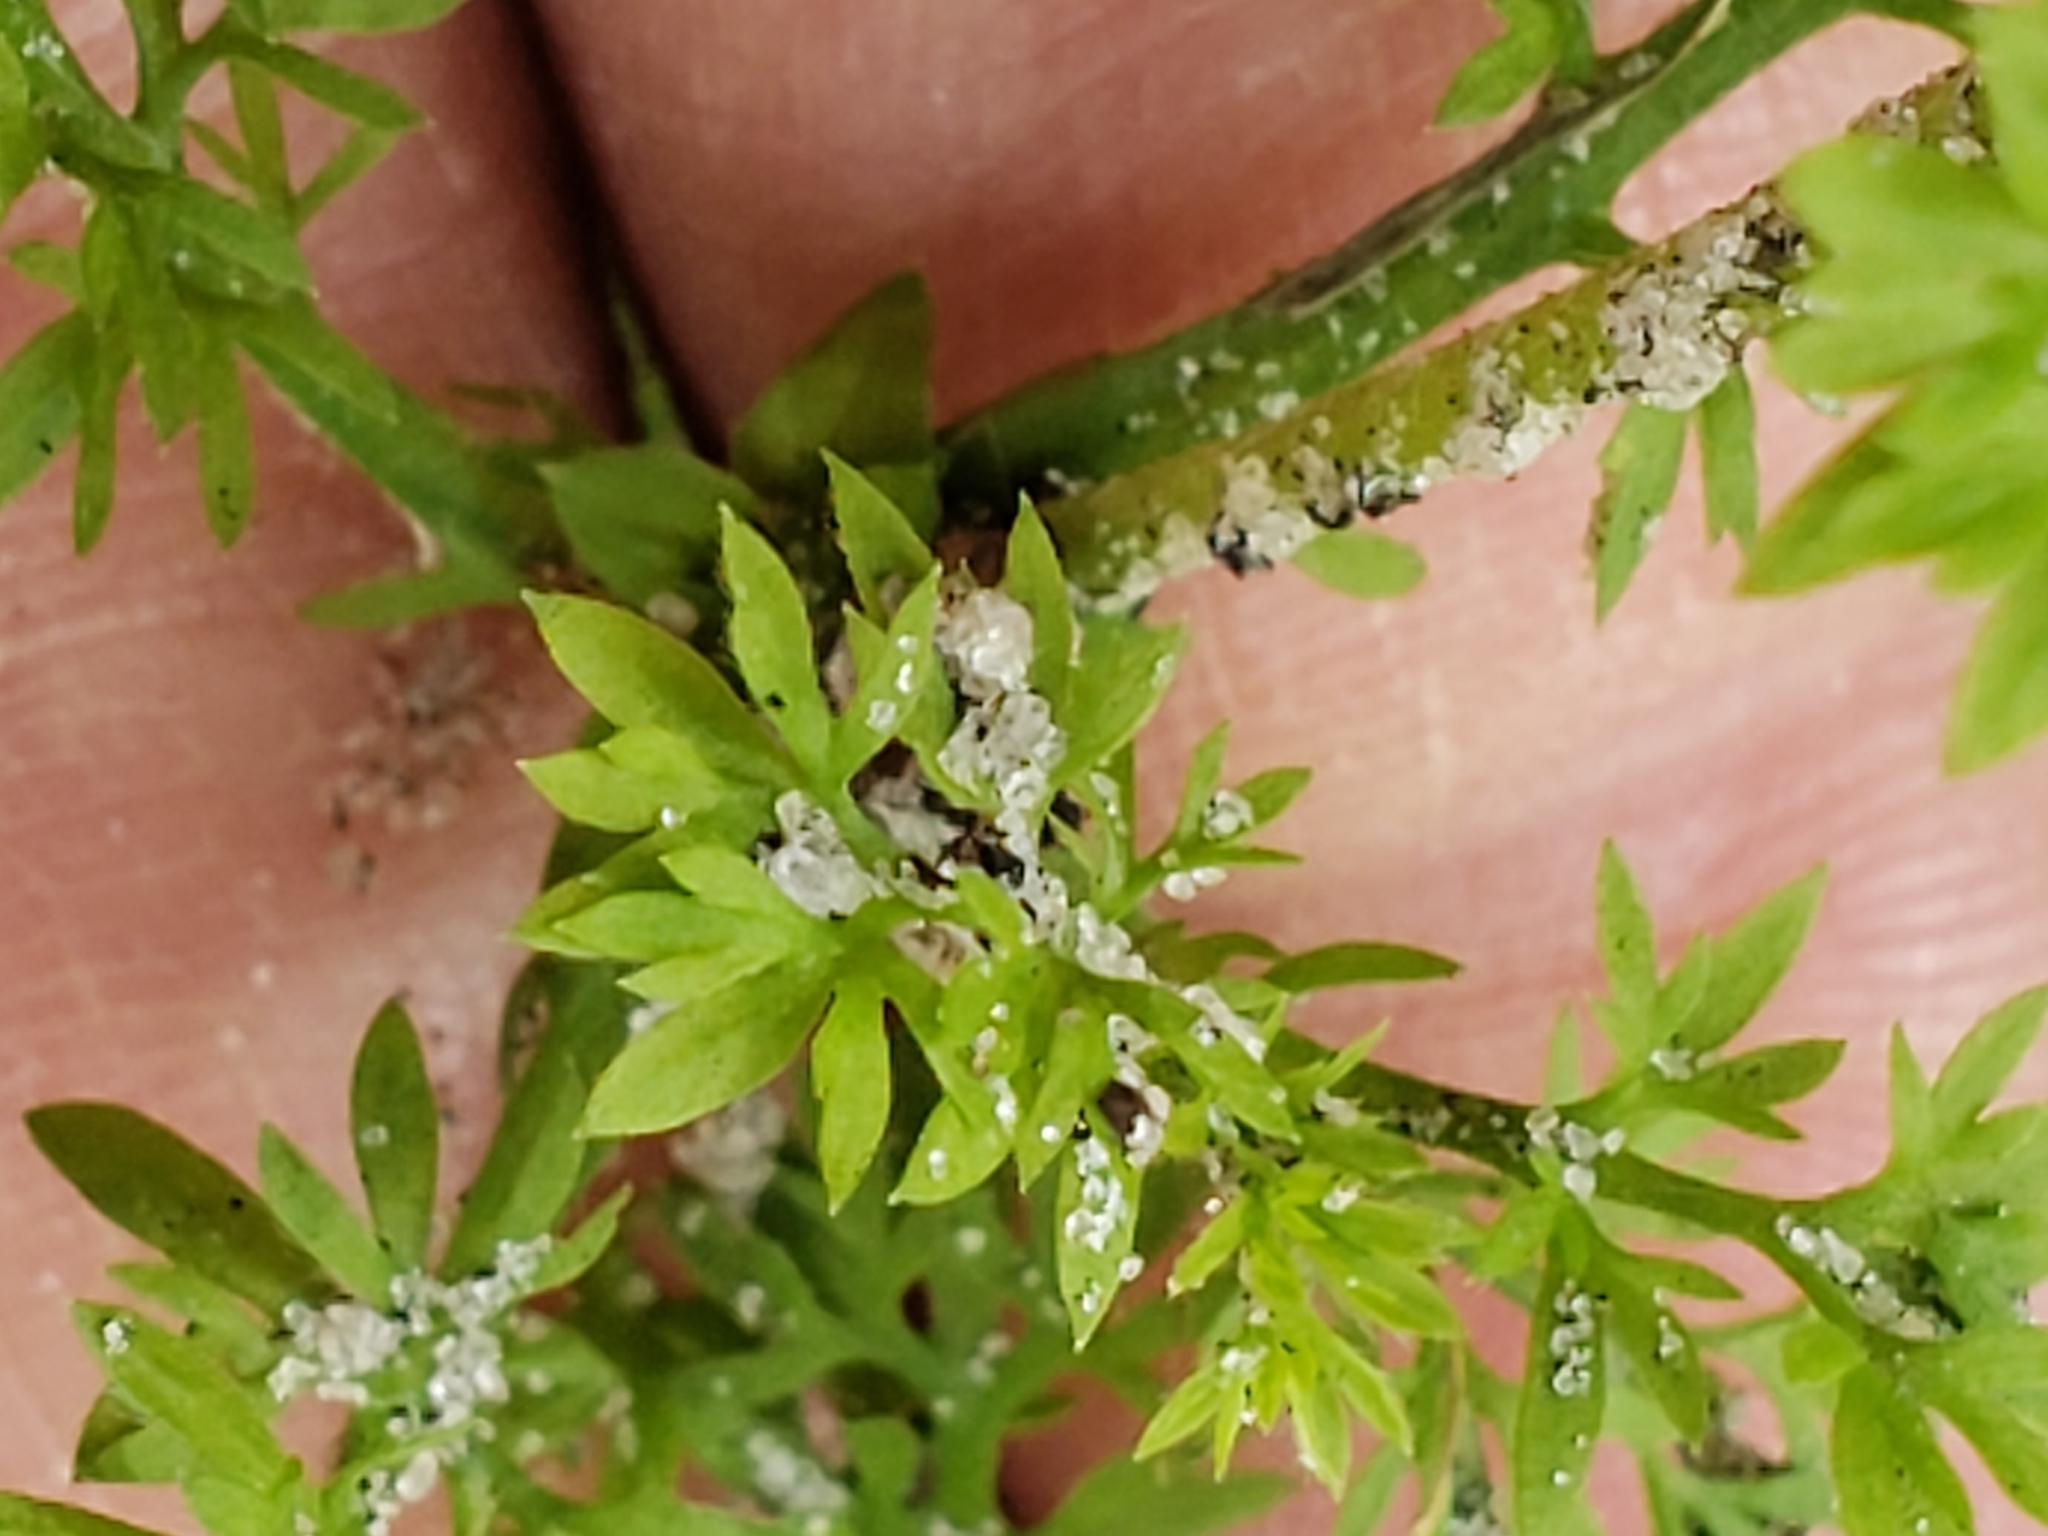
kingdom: Plantae
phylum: Tracheophyta
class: Magnoliopsida
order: Asterales
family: Asteraceae
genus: Soliva
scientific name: Soliva sessilis
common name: Field burrweed
